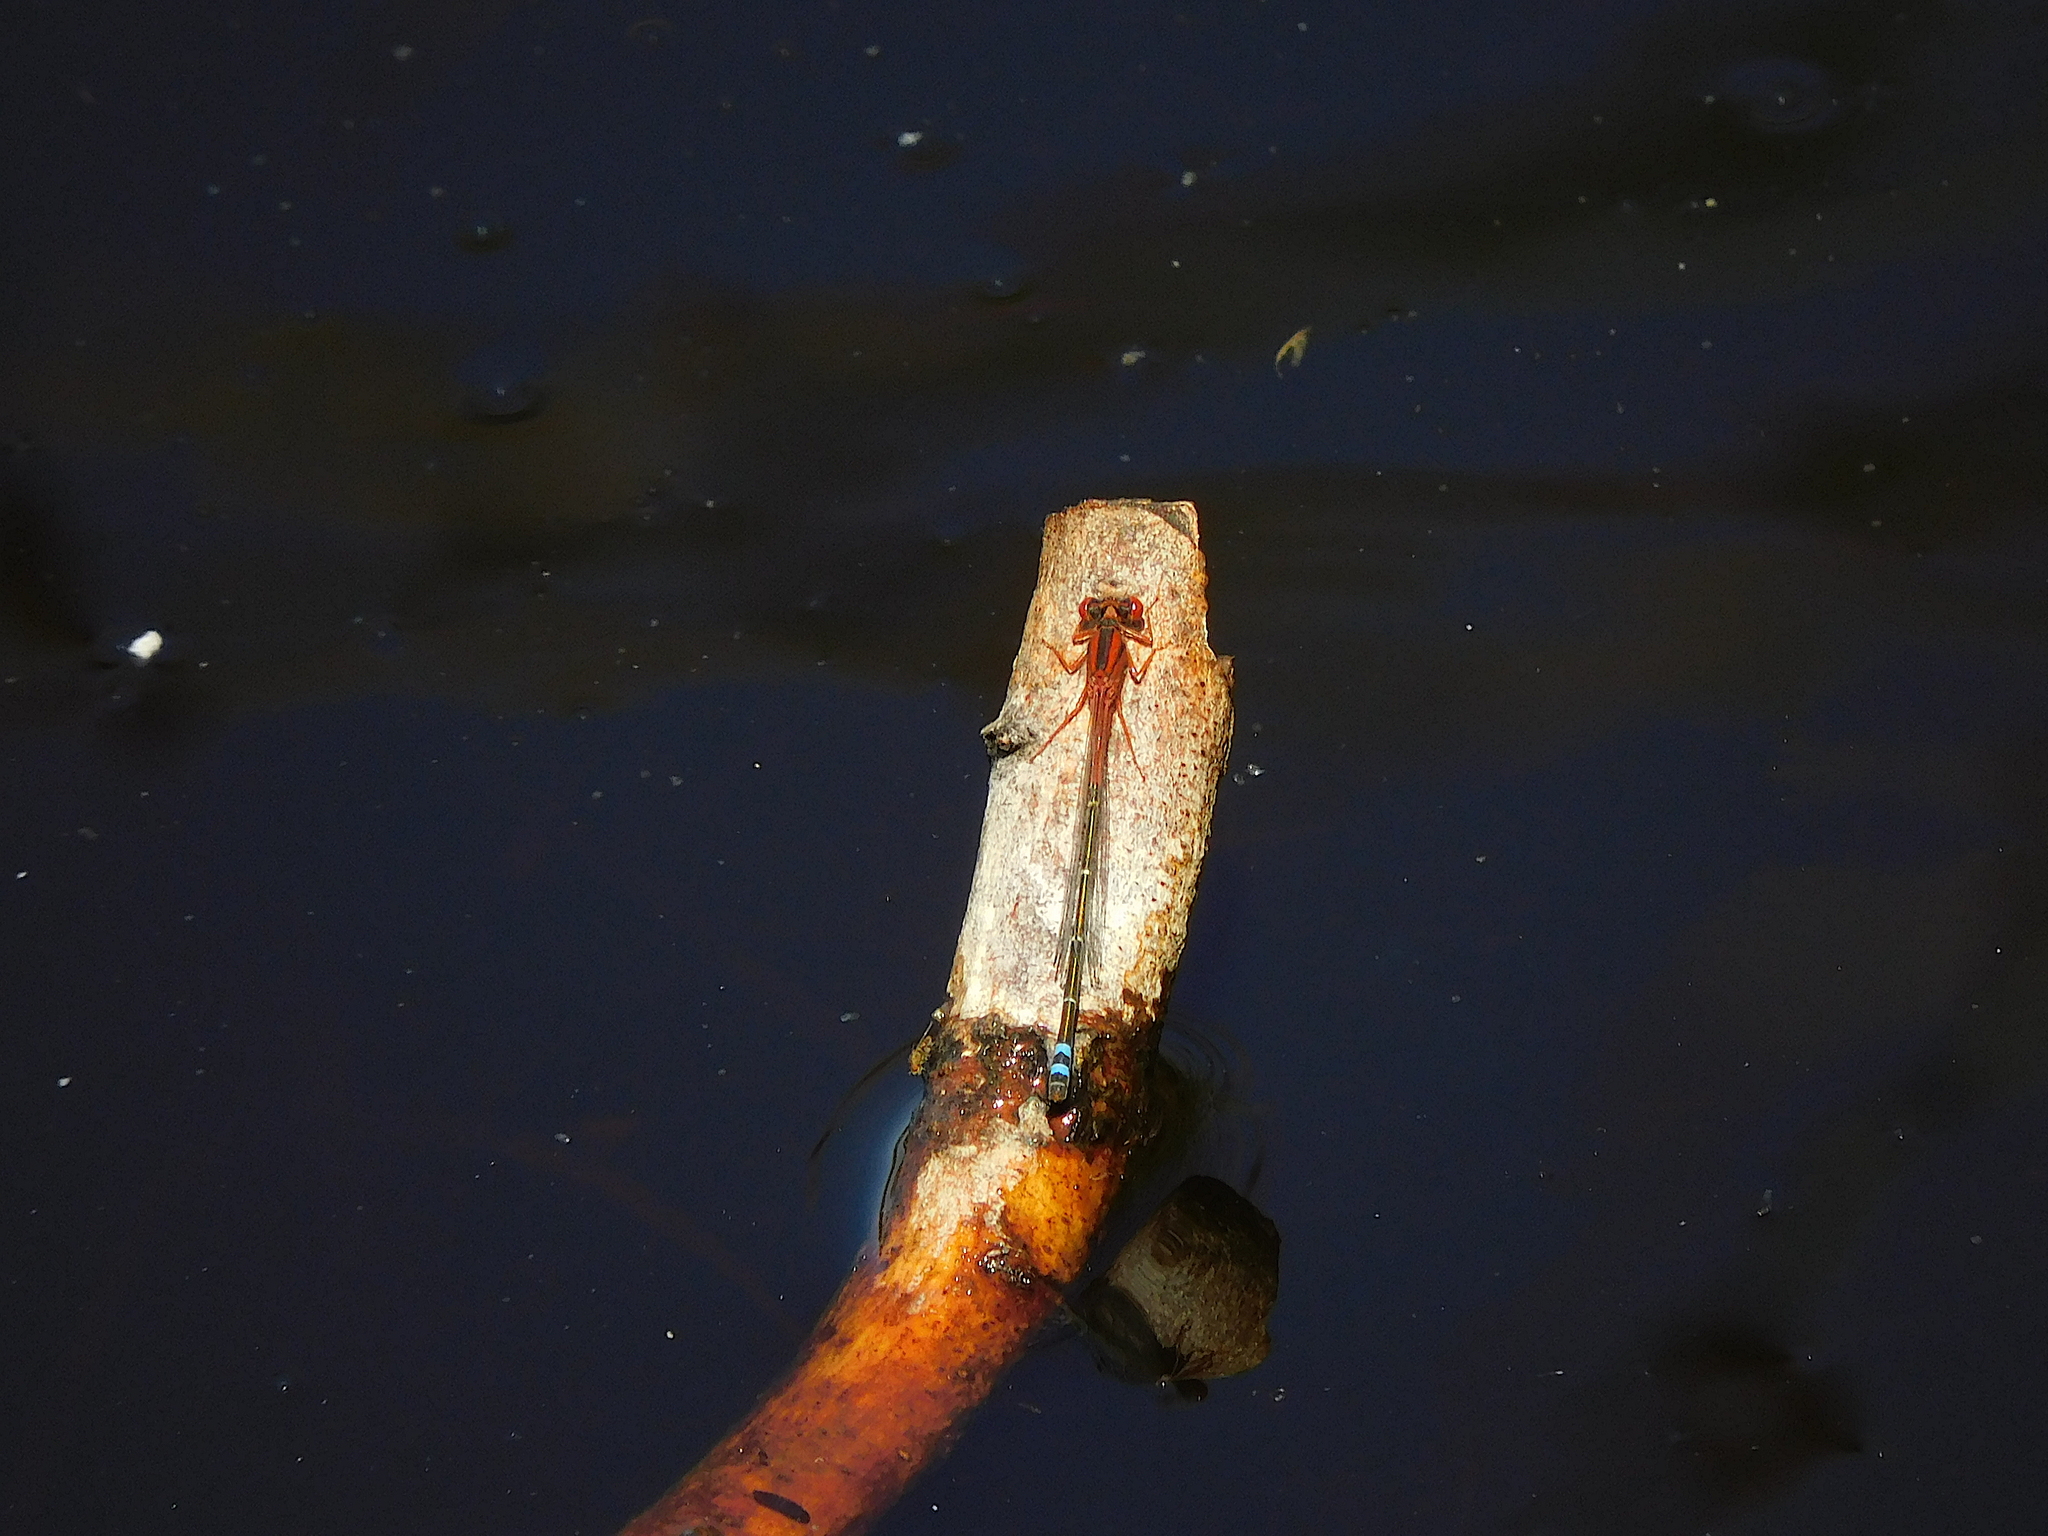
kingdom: Animalia
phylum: Arthropoda
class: Insecta
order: Odonata
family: Coenagrionidae
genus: Xanthagrion
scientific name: Xanthagrion erythroneurum
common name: Red and blue damsel
